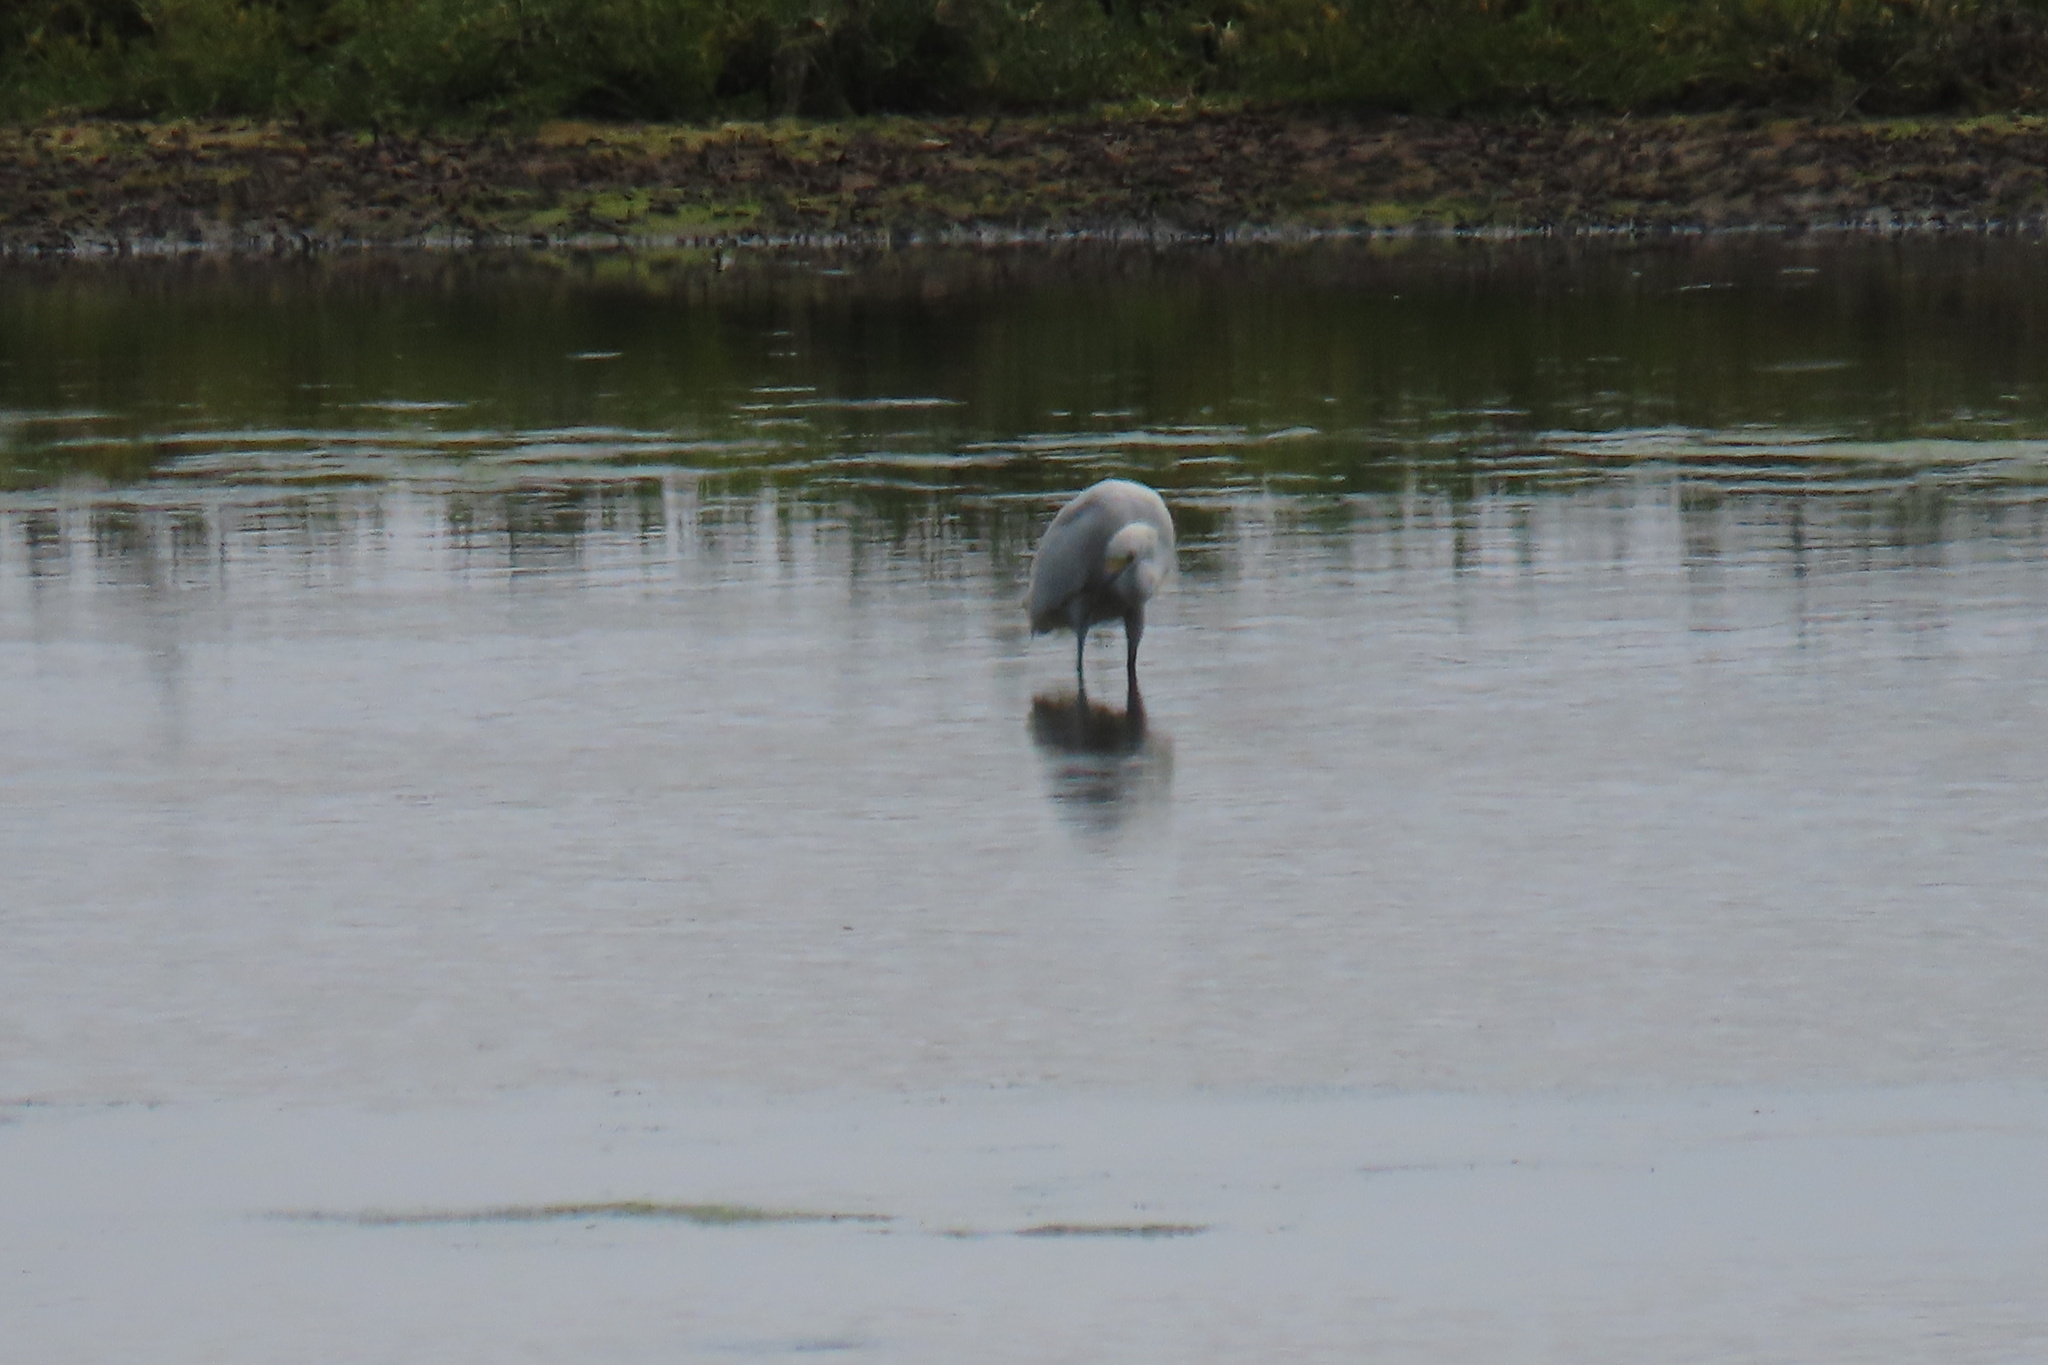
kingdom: Animalia
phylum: Chordata
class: Aves
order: Pelecaniformes
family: Ardeidae
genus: Egretta
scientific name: Egretta thula
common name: Snowy egret
